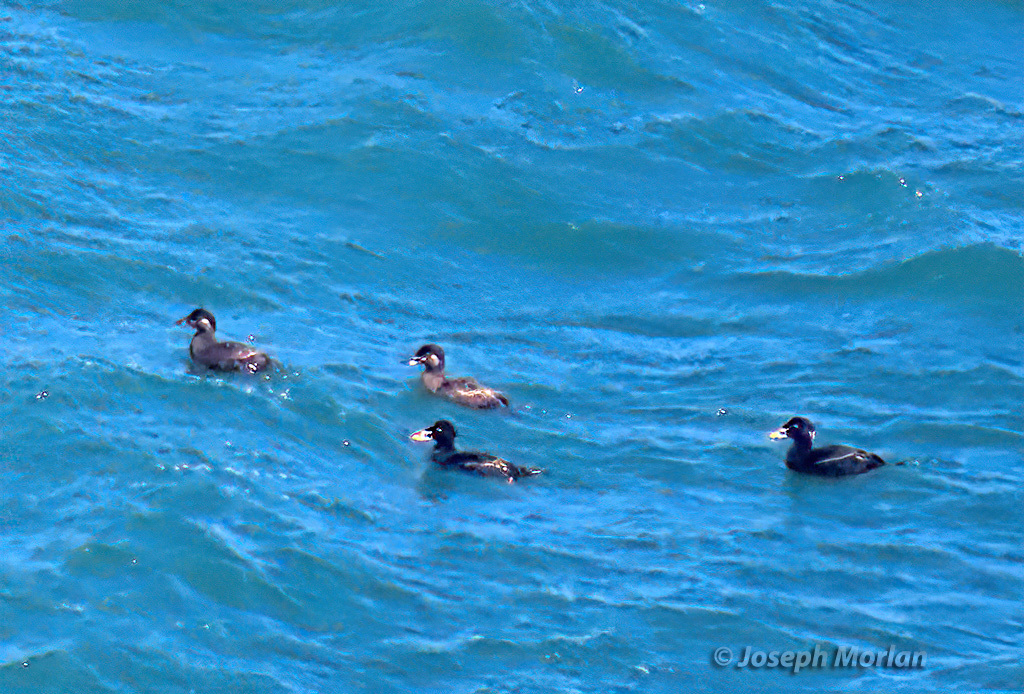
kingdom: Animalia
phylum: Chordata
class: Aves
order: Anseriformes
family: Anatidae
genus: Melanitta
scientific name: Melanitta perspicillata
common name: Surf scoter
